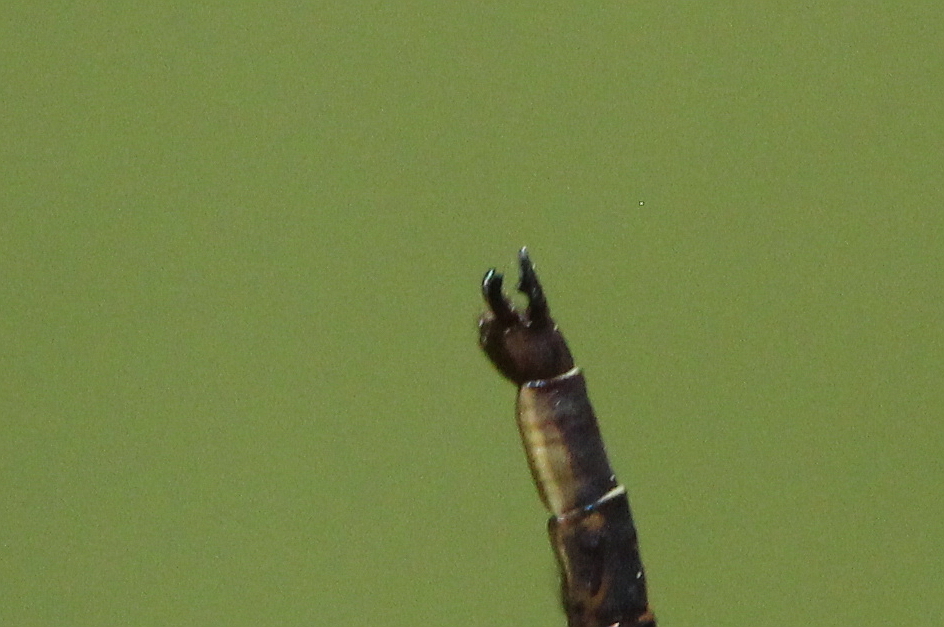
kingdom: Animalia
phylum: Arthropoda
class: Insecta
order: Odonata
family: Gomphidae
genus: Phanogomphus
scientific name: Phanogomphus spicatus
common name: Dusky clubtail
